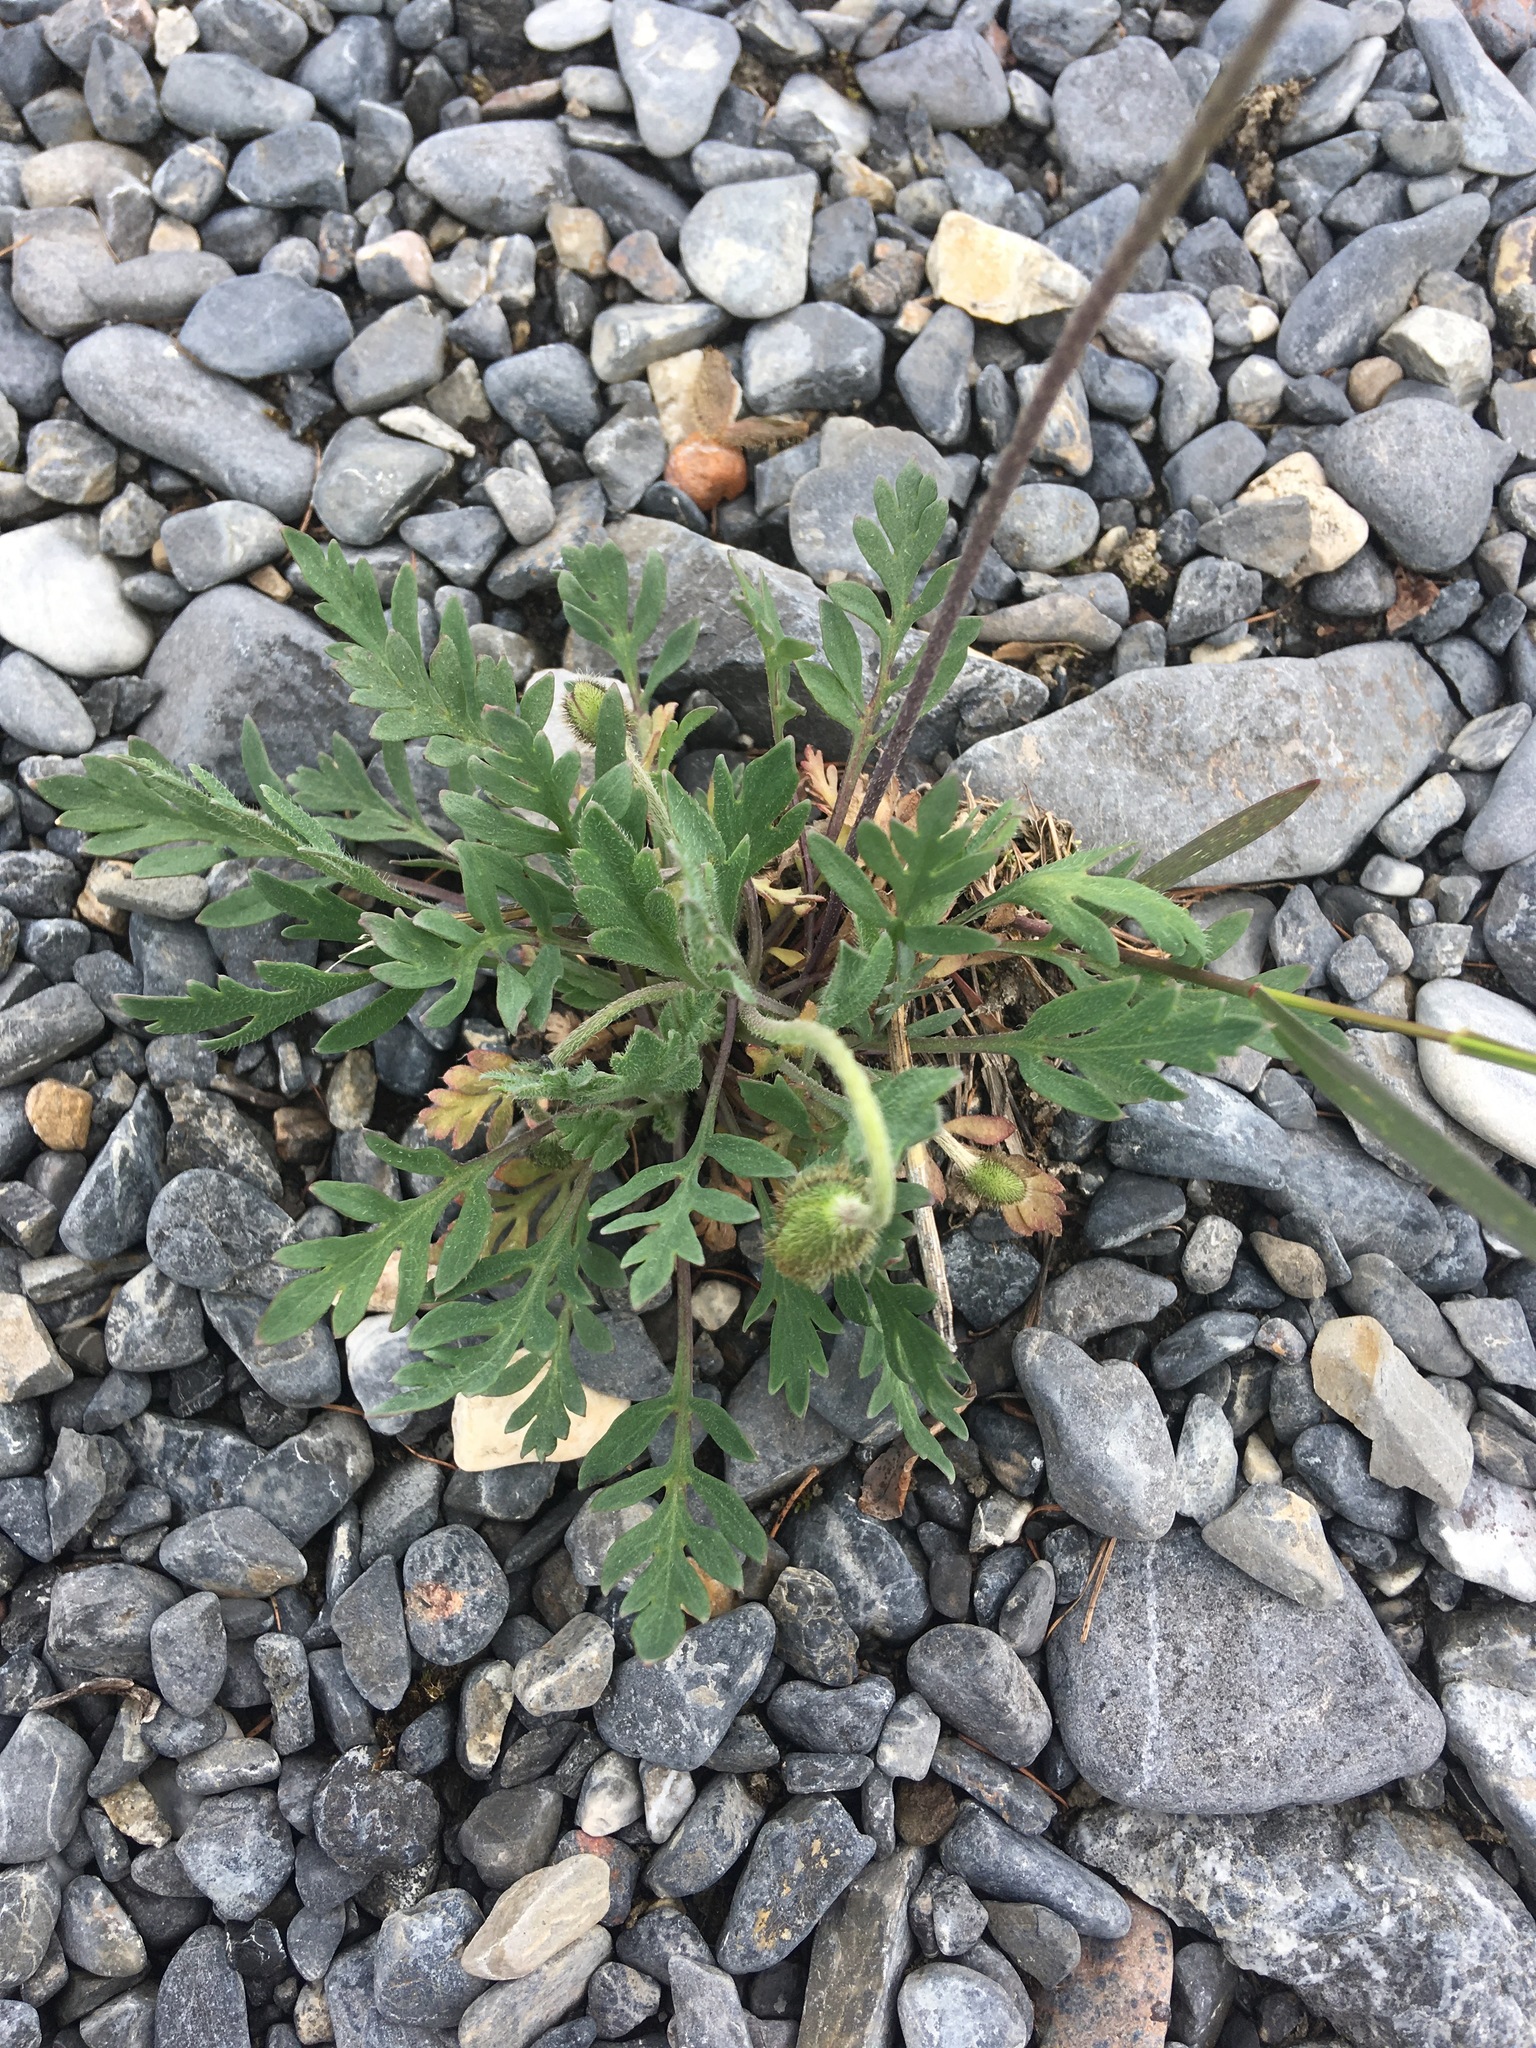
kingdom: Plantae
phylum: Tracheophyta
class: Magnoliopsida
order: Ranunculales
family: Papaveraceae
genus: Papaver
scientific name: Papaver nudicaule
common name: Arctic poppy
